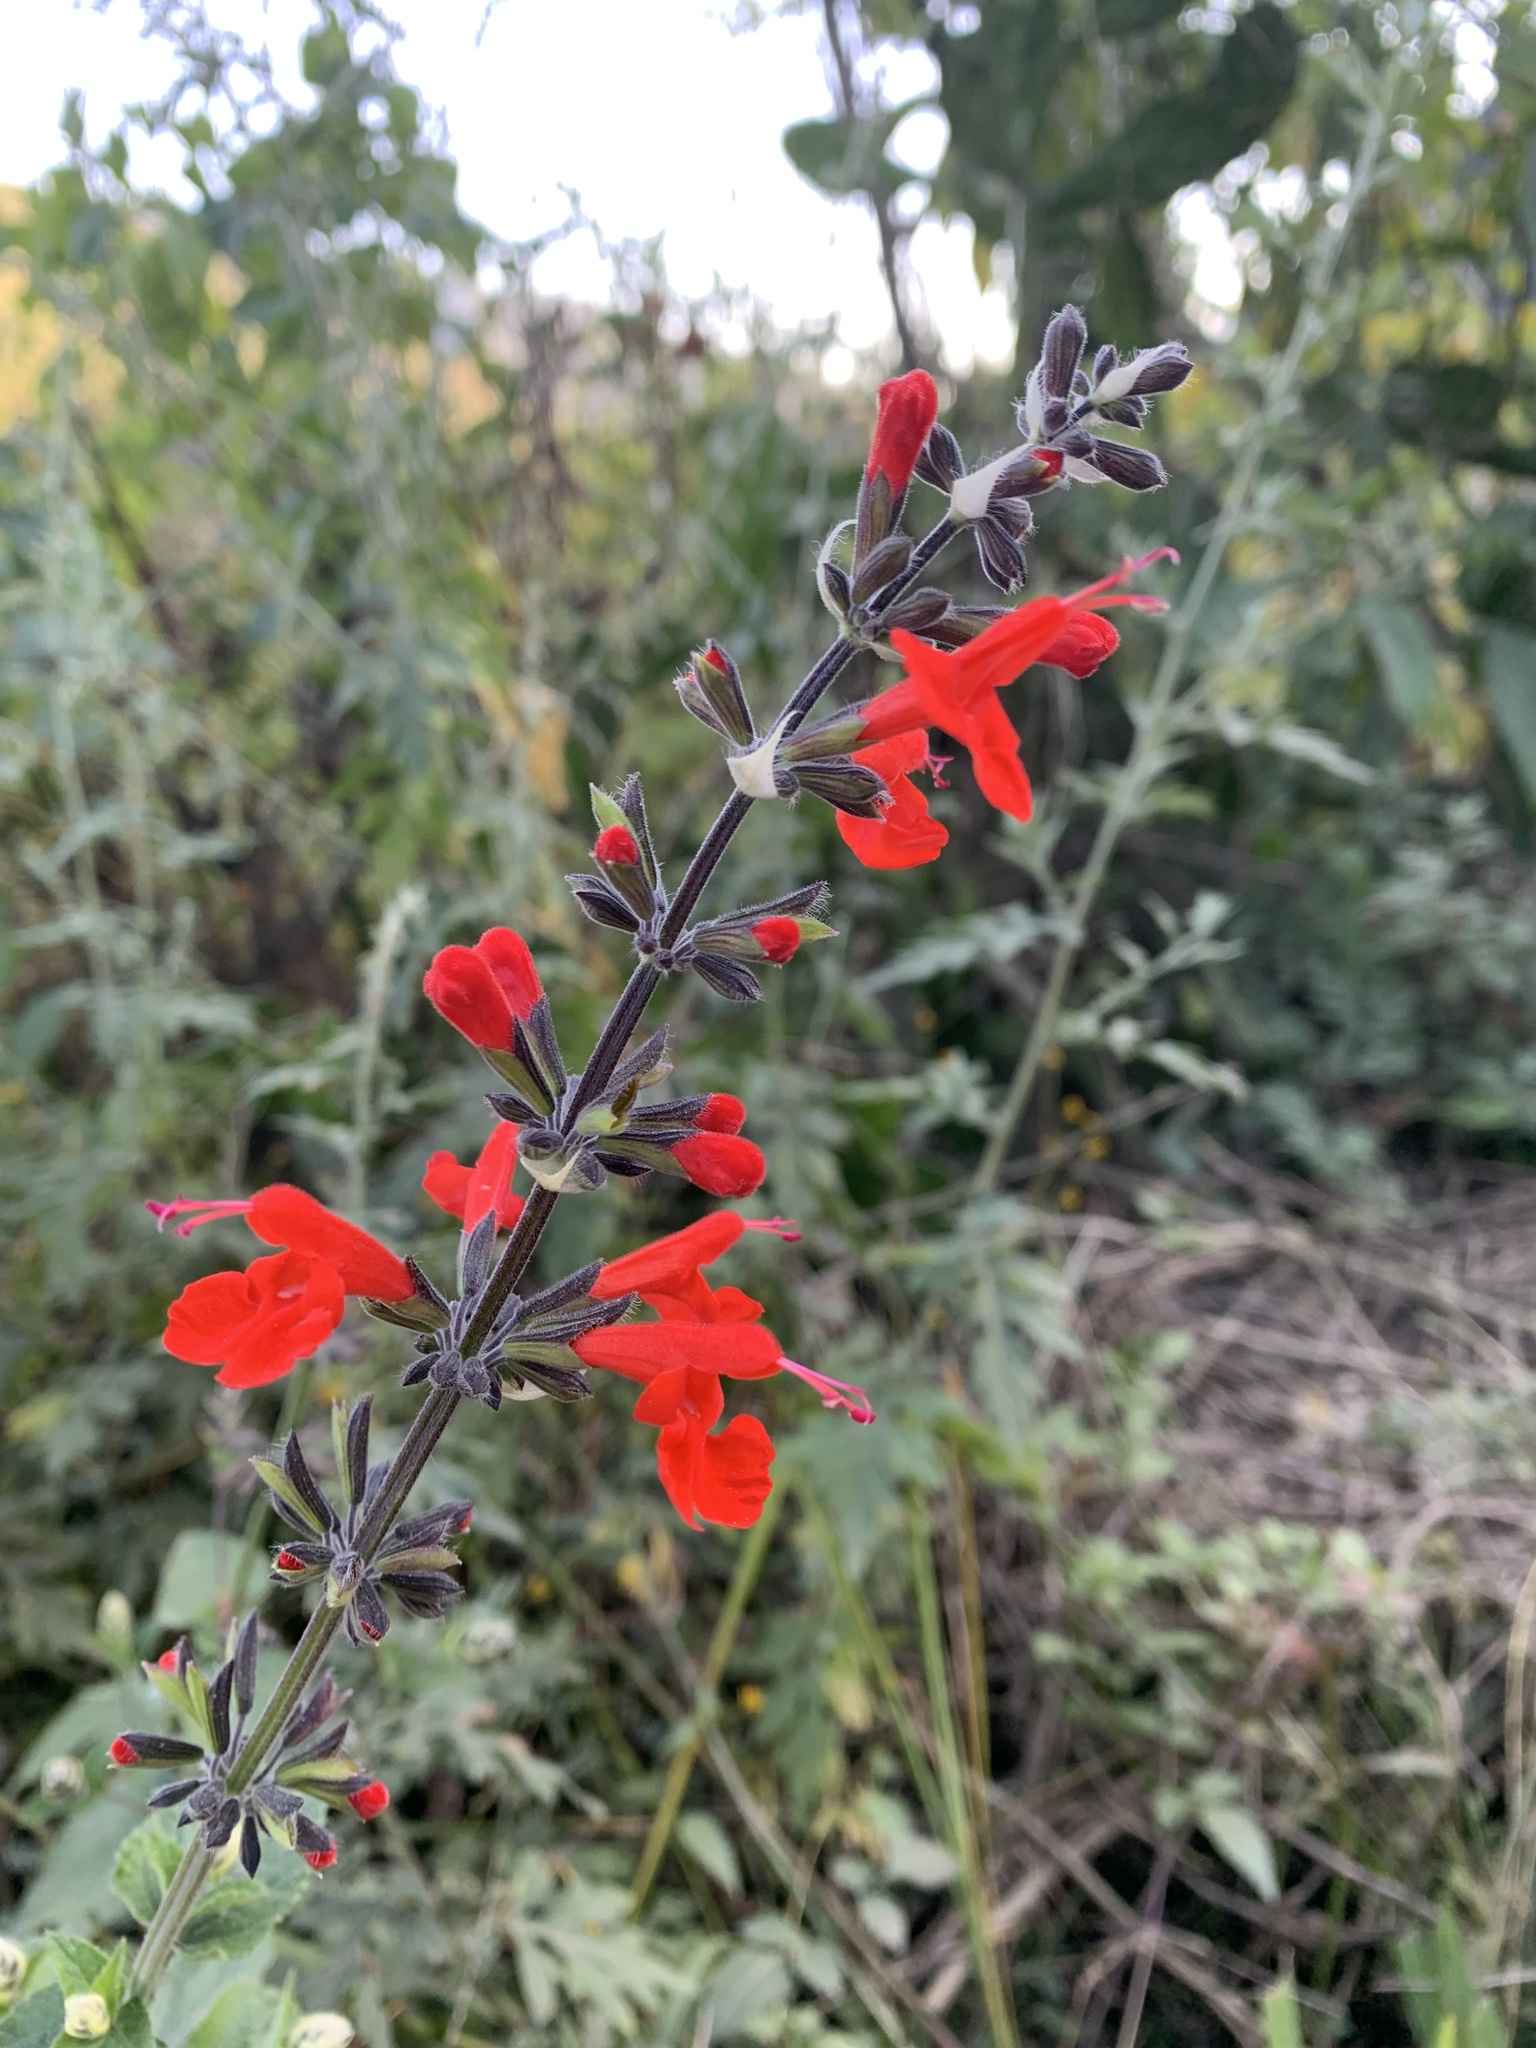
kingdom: Plantae
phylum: Tracheophyta
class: Magnoliopsida
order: Lamiales
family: Lamiaceae
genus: Salvia
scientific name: Salvia coccinea
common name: Blood sage
